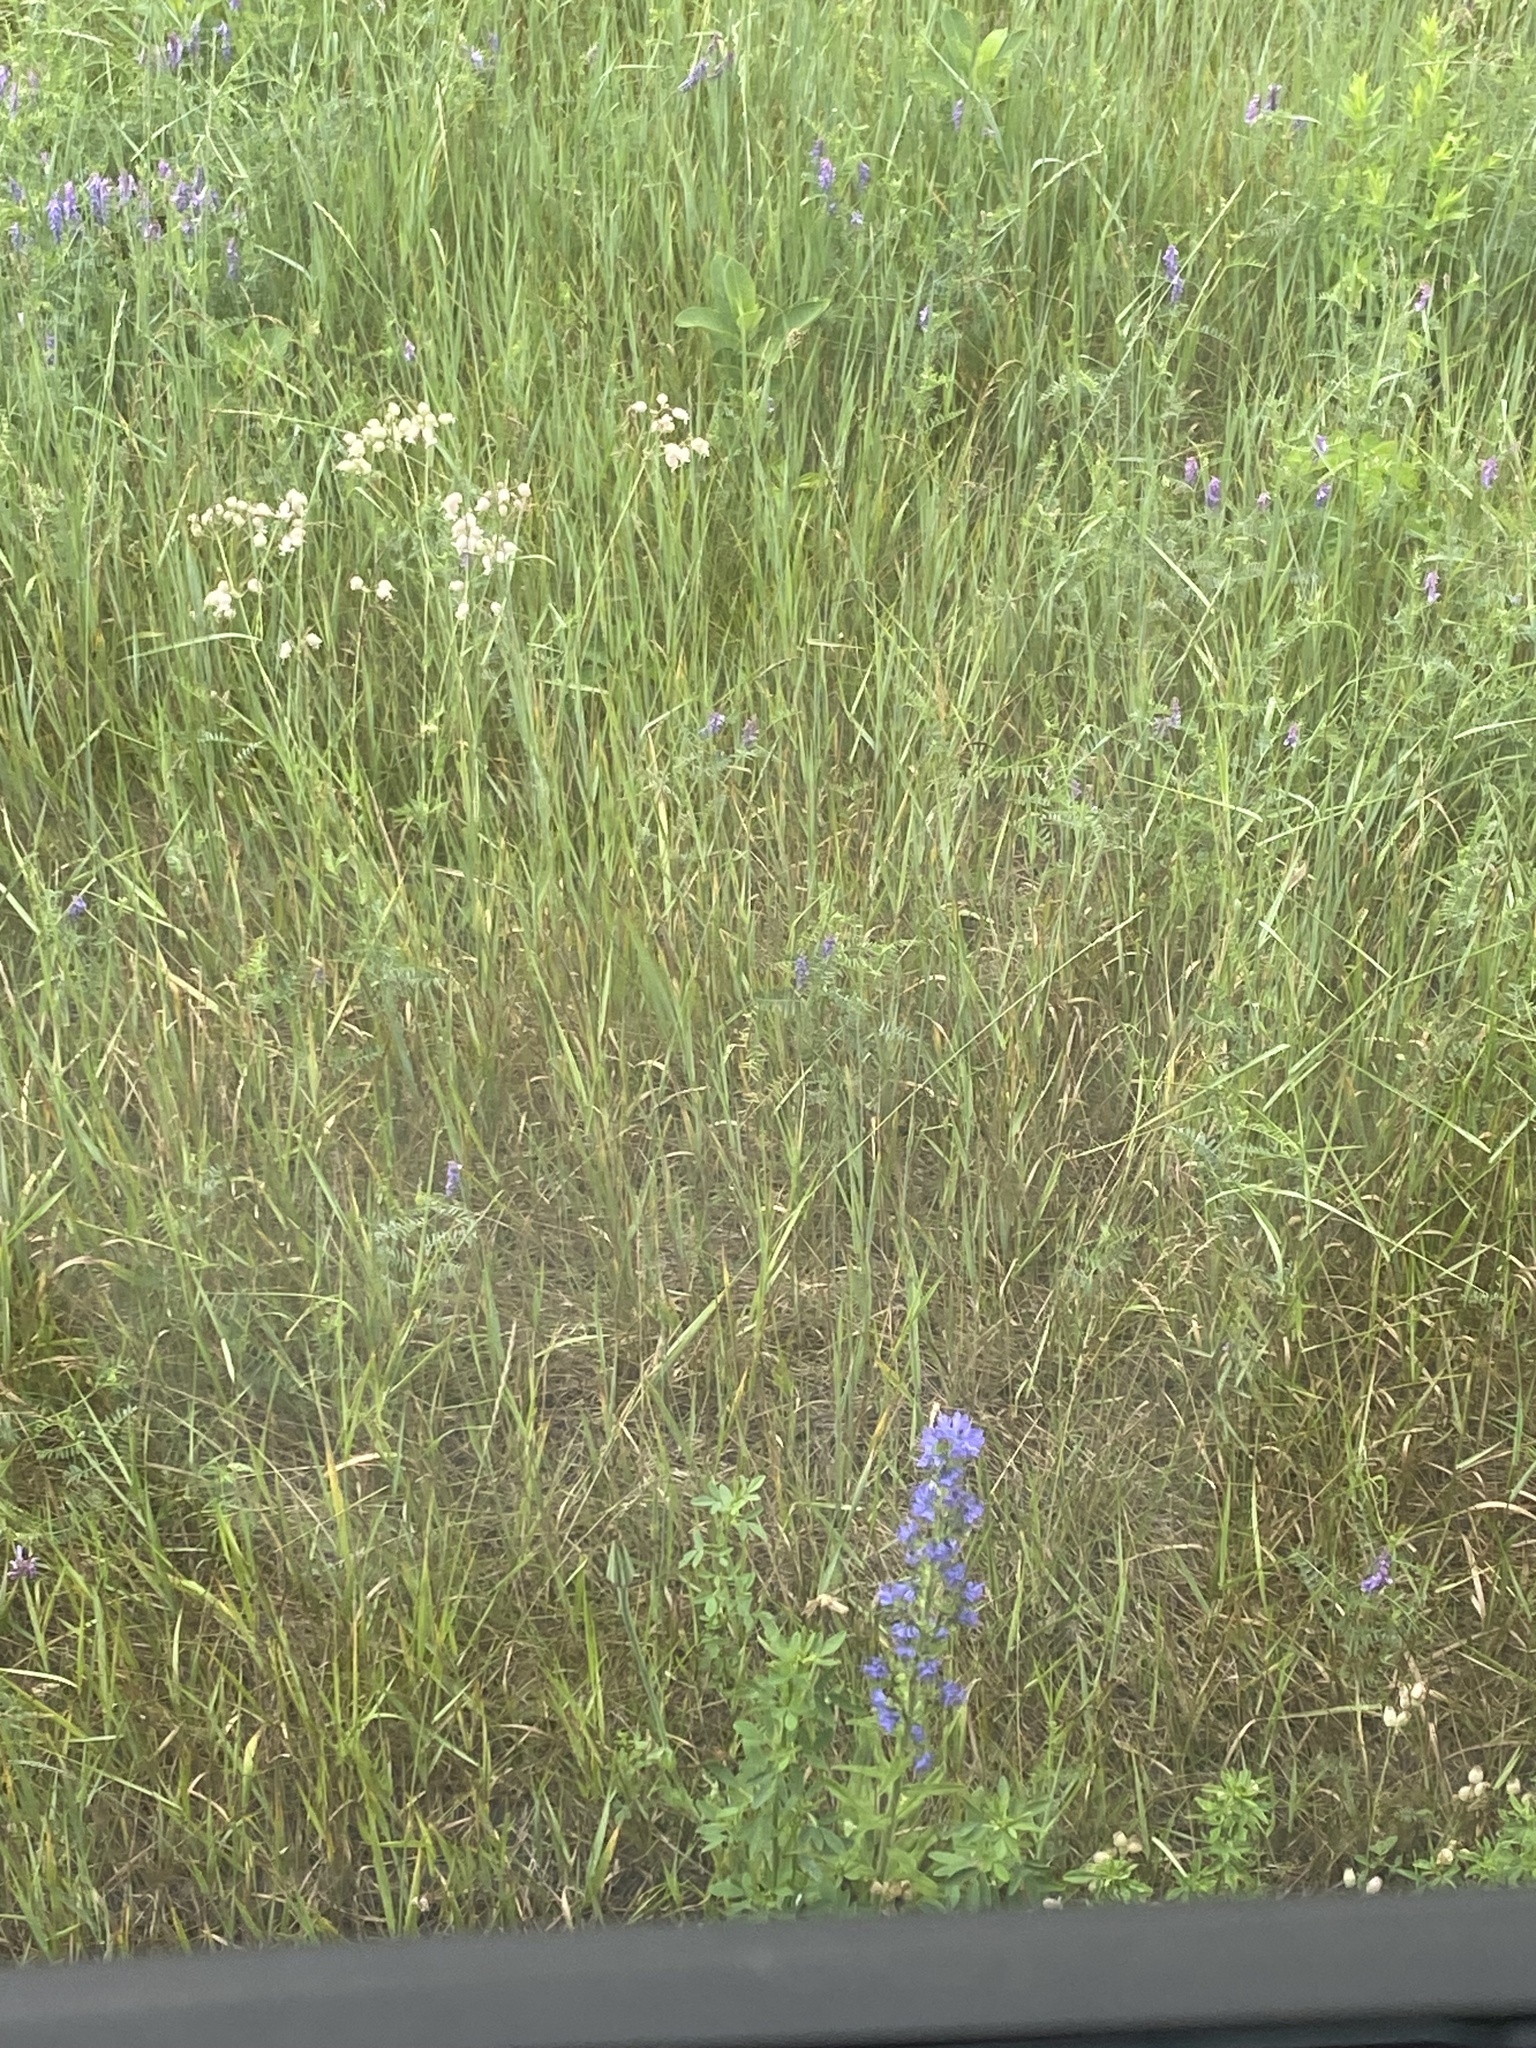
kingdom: Plantae
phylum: Tracheophyta
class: Magnoliopsida
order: Boraginales
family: Boraginaceae
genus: Echium
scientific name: Echium vulgare
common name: Common viper's bugloss
